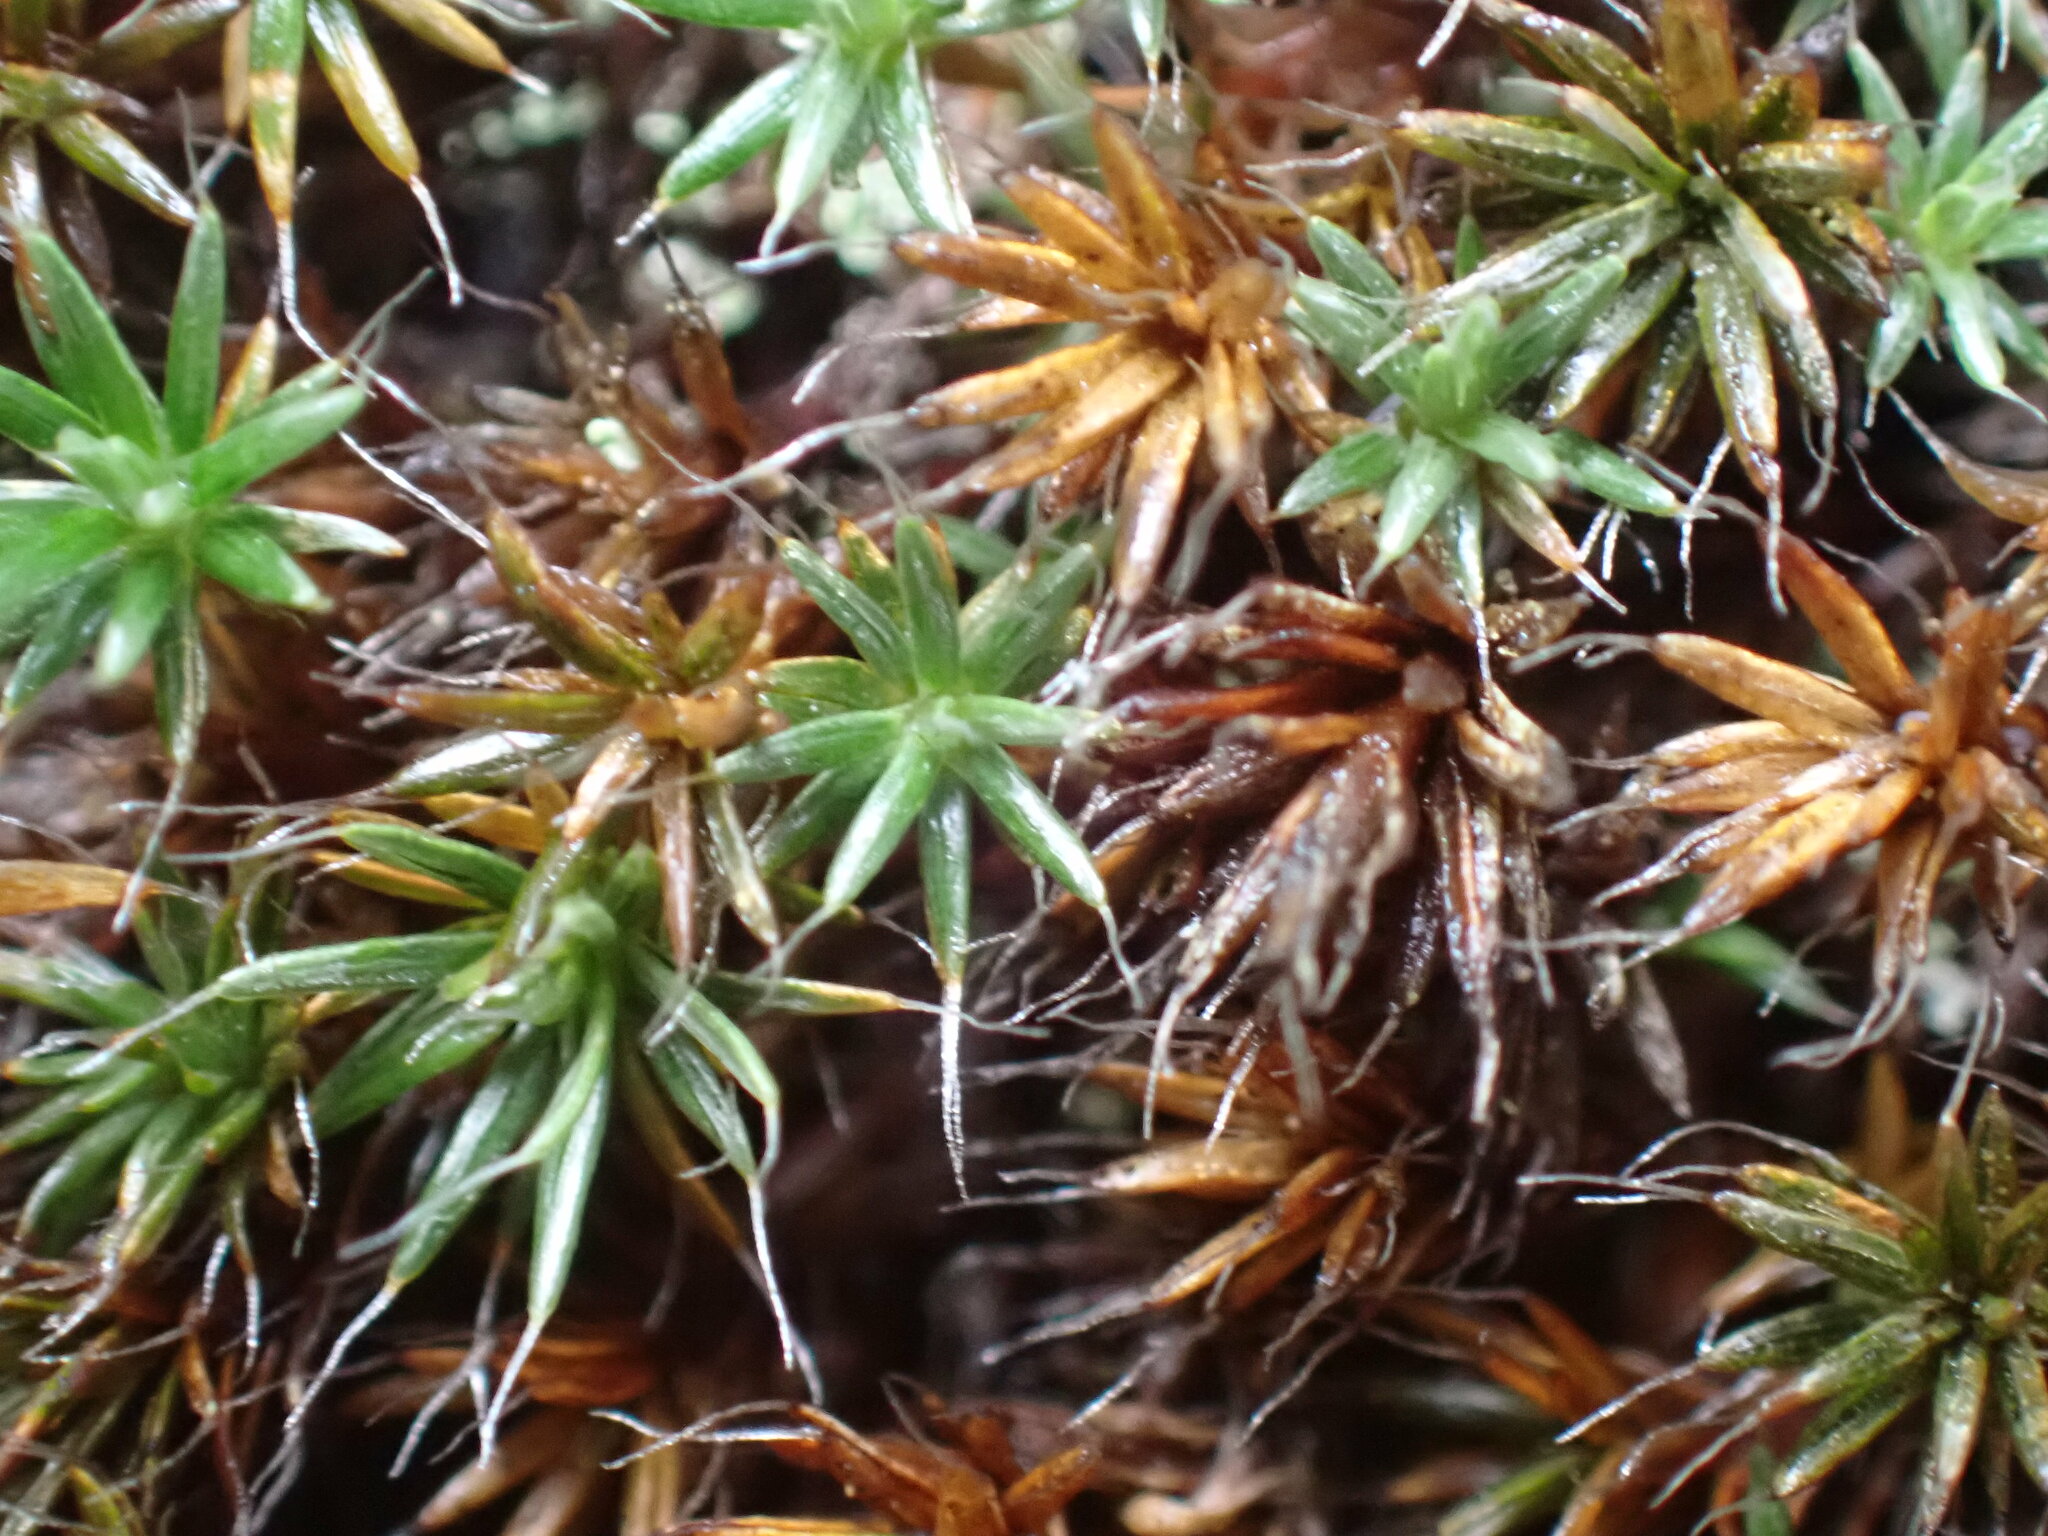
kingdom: Plantae
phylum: Bryophyta
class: Polytrichopsida
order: Polytrichales
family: Polytrichaceae
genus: Polytrichum
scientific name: Polytrichum piliferum
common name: Bristly haircap
